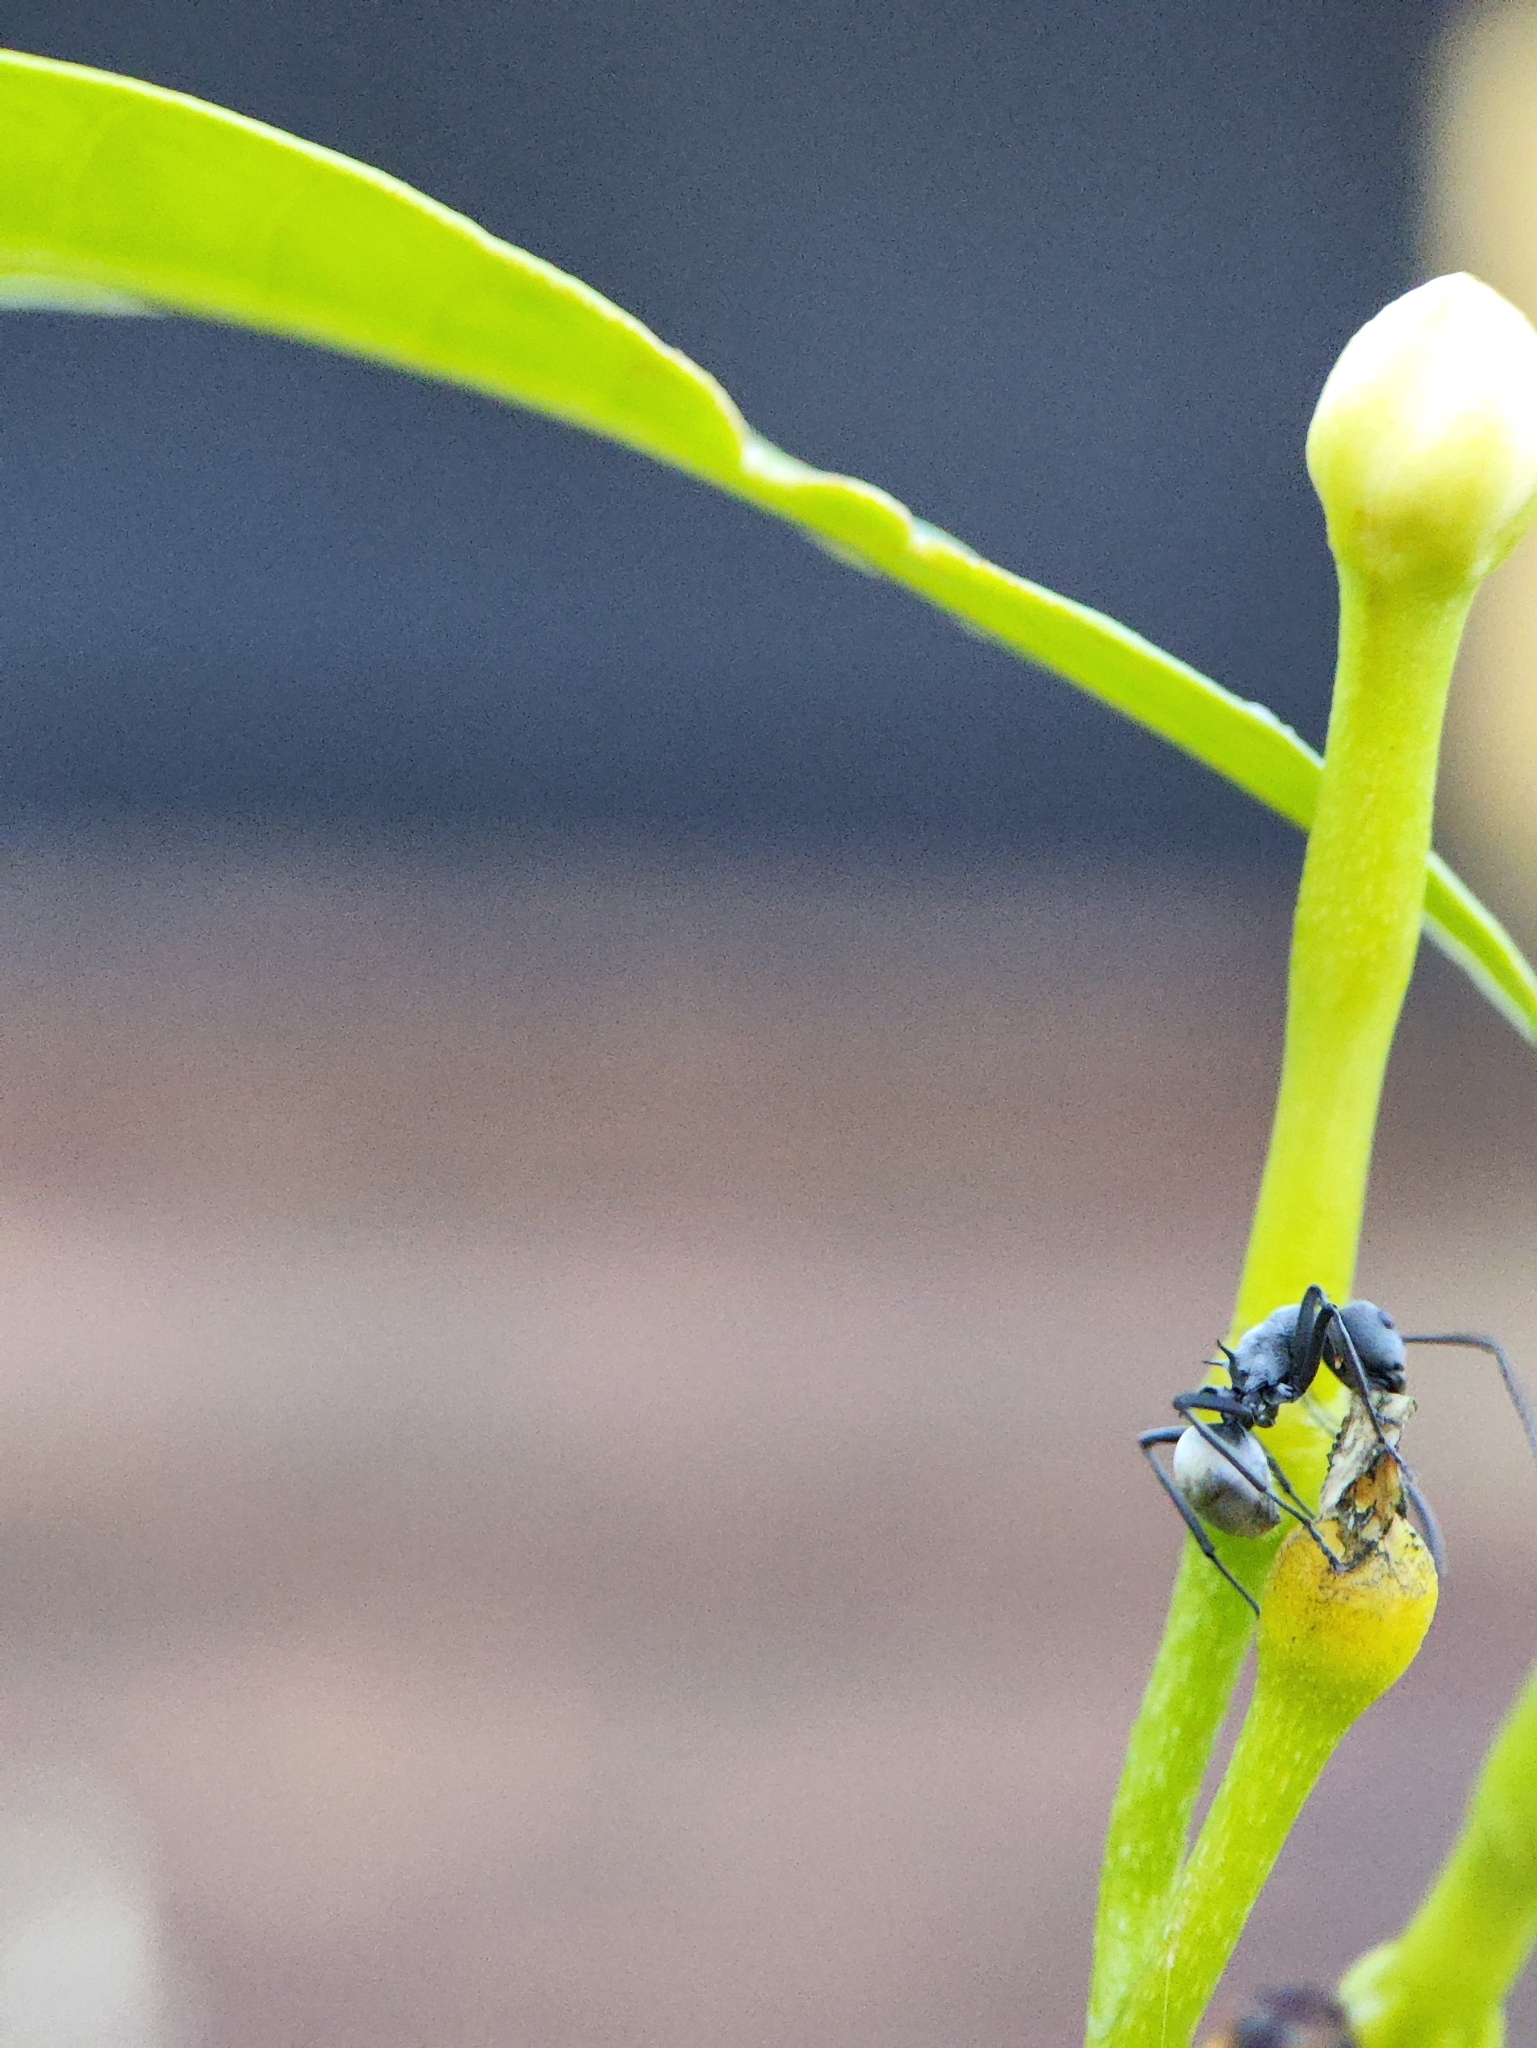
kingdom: Animalia
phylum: Arthropoda
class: Insecta
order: Hymenoptera
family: Formicidae
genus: Polyrhachis
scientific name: Polyrhachis dives
